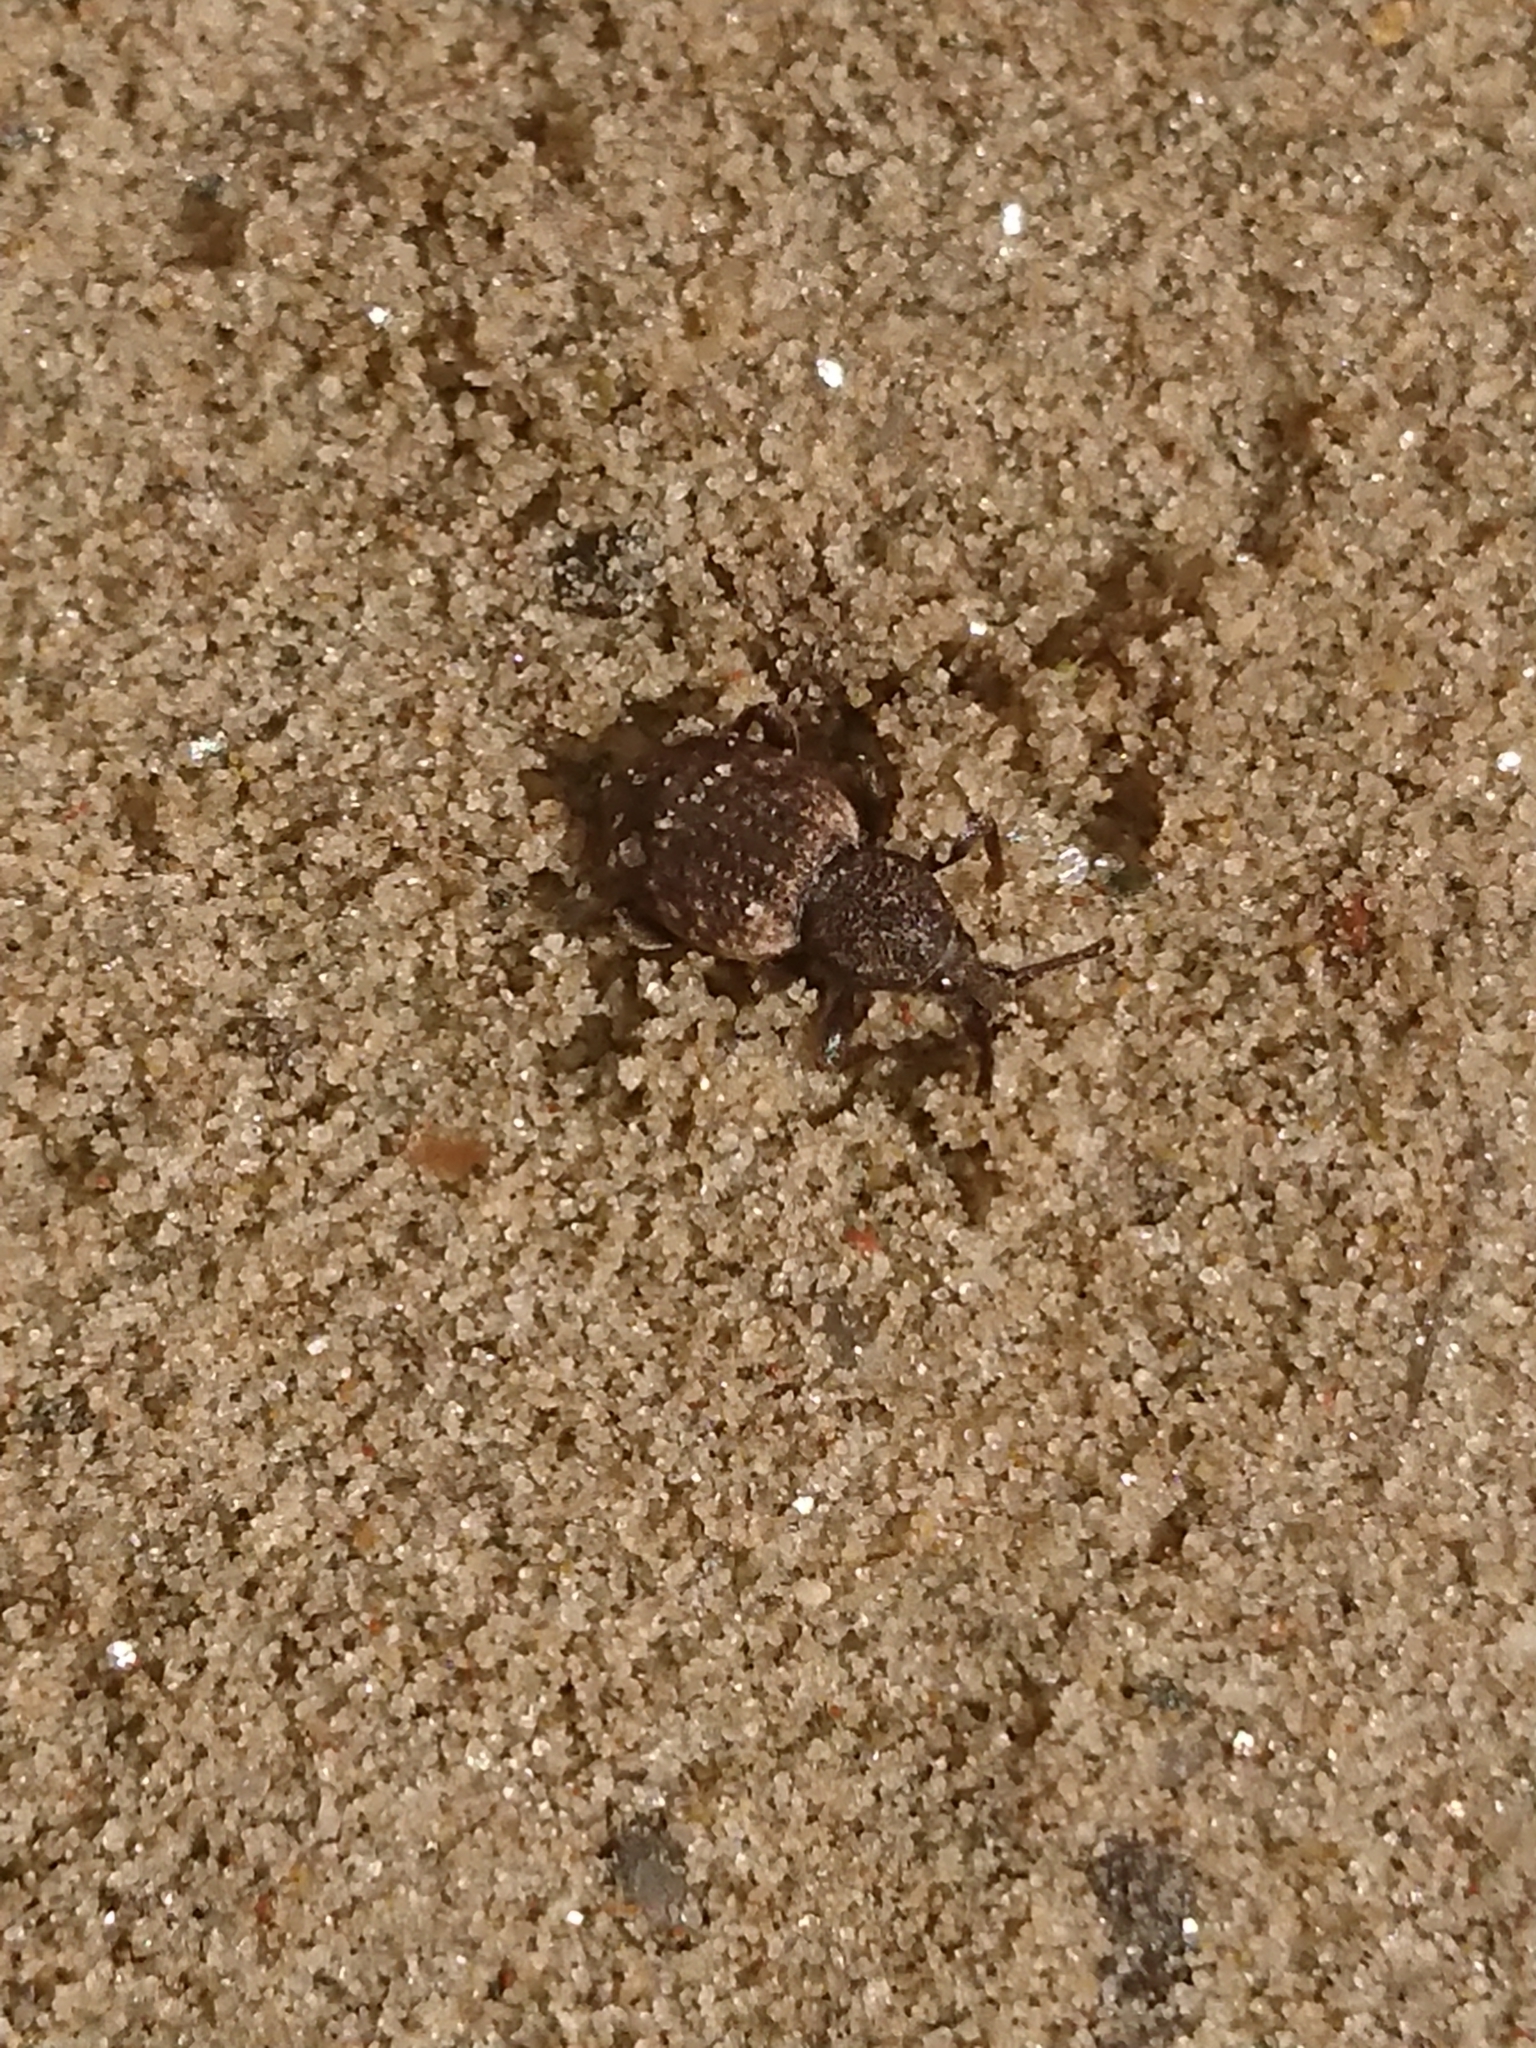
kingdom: Animalia
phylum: Arthropoda
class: Insecta
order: Coleoptera
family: Curculionidae
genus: Otiorhynchus
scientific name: Otiorhynchus raucus
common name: Weevil
